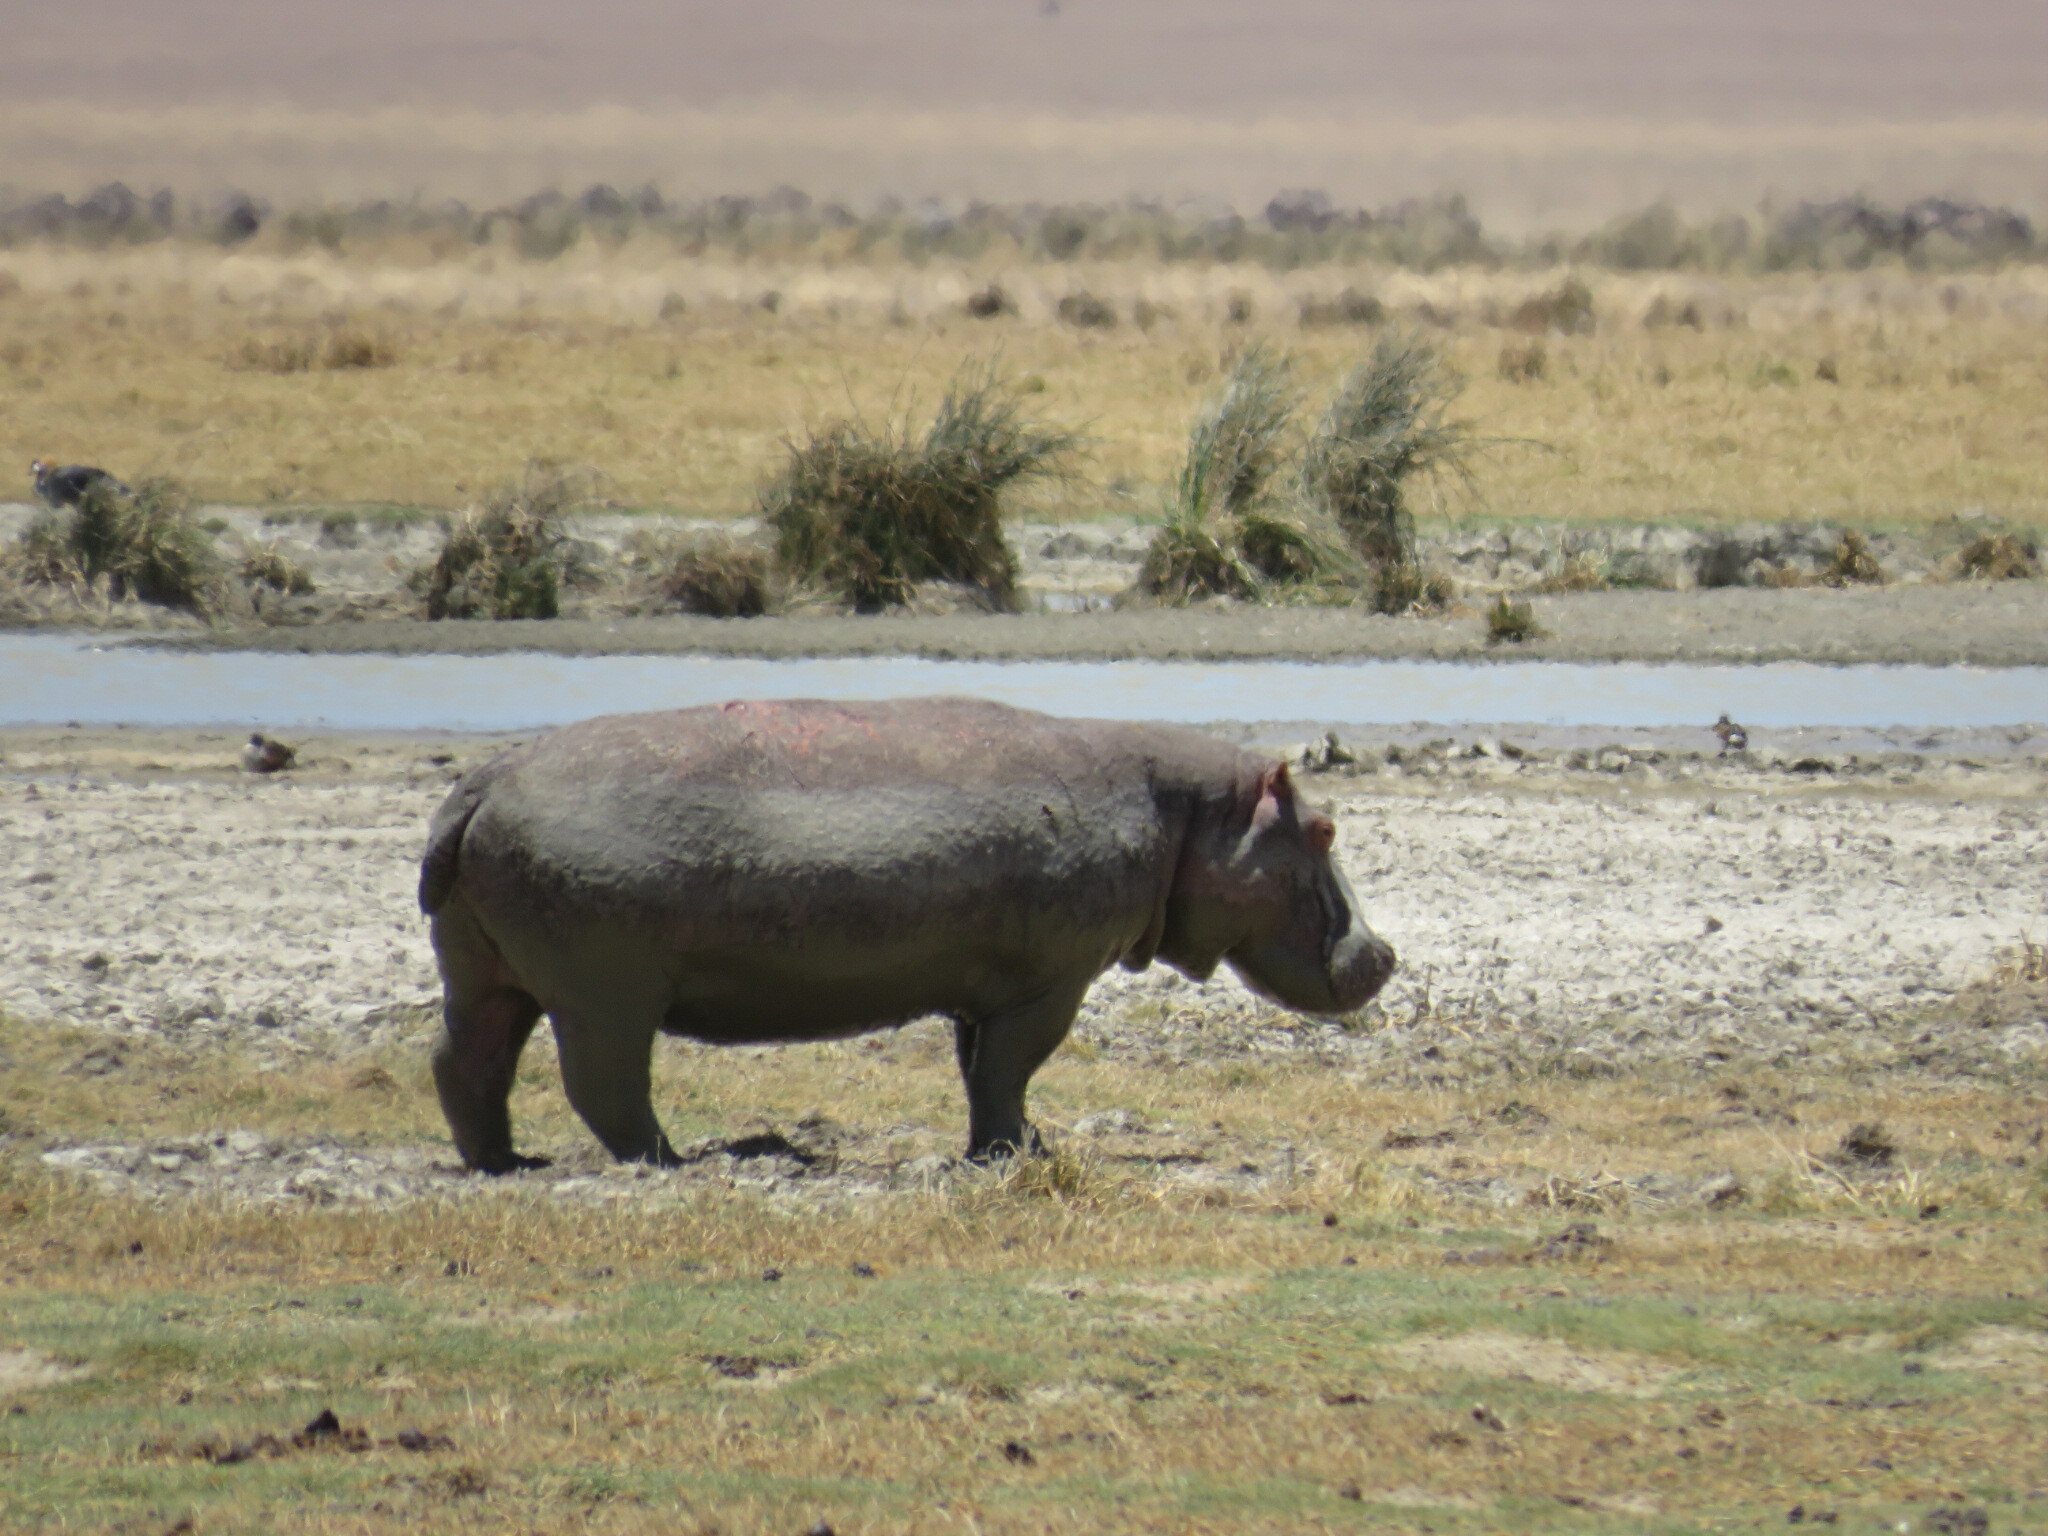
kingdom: Animalia
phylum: Chordata
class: Mammalia
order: Artiodactyla
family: Hippopotamidae
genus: Hippopotamus
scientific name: Hippopotamus amphibius
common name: Common hippopotamus
